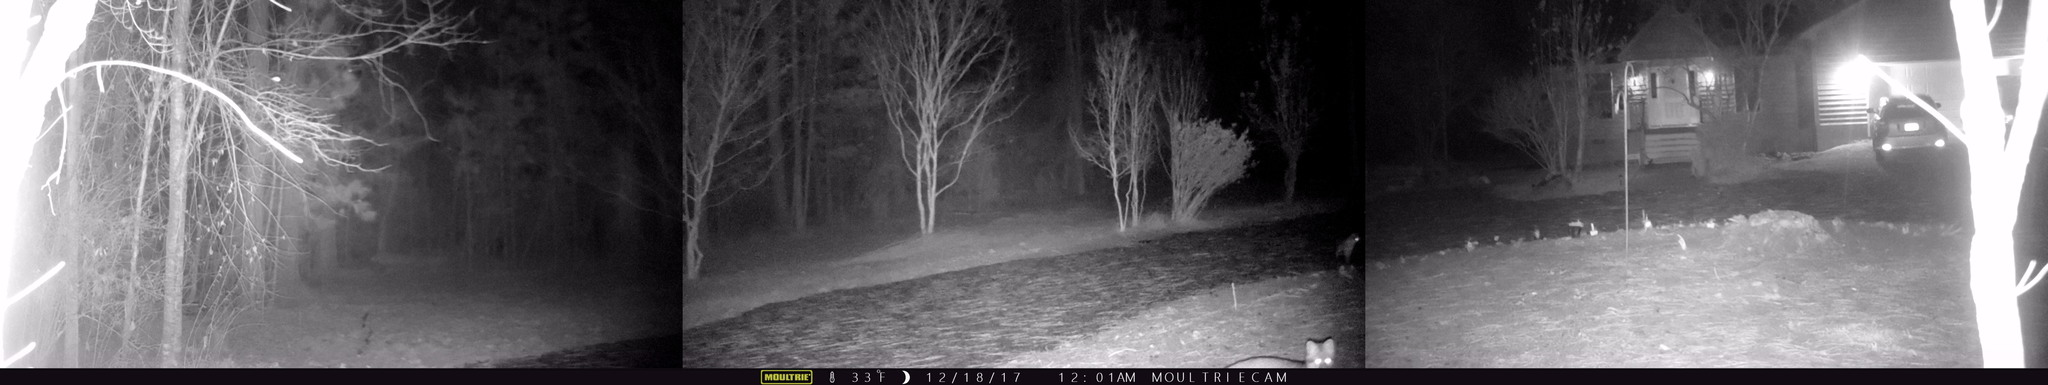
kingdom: Animalia
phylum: Chordata
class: Mammalia
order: Carnivora
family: Canidae
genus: Urocyon
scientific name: Urocyon cinereoargenteus
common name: Gray fox
